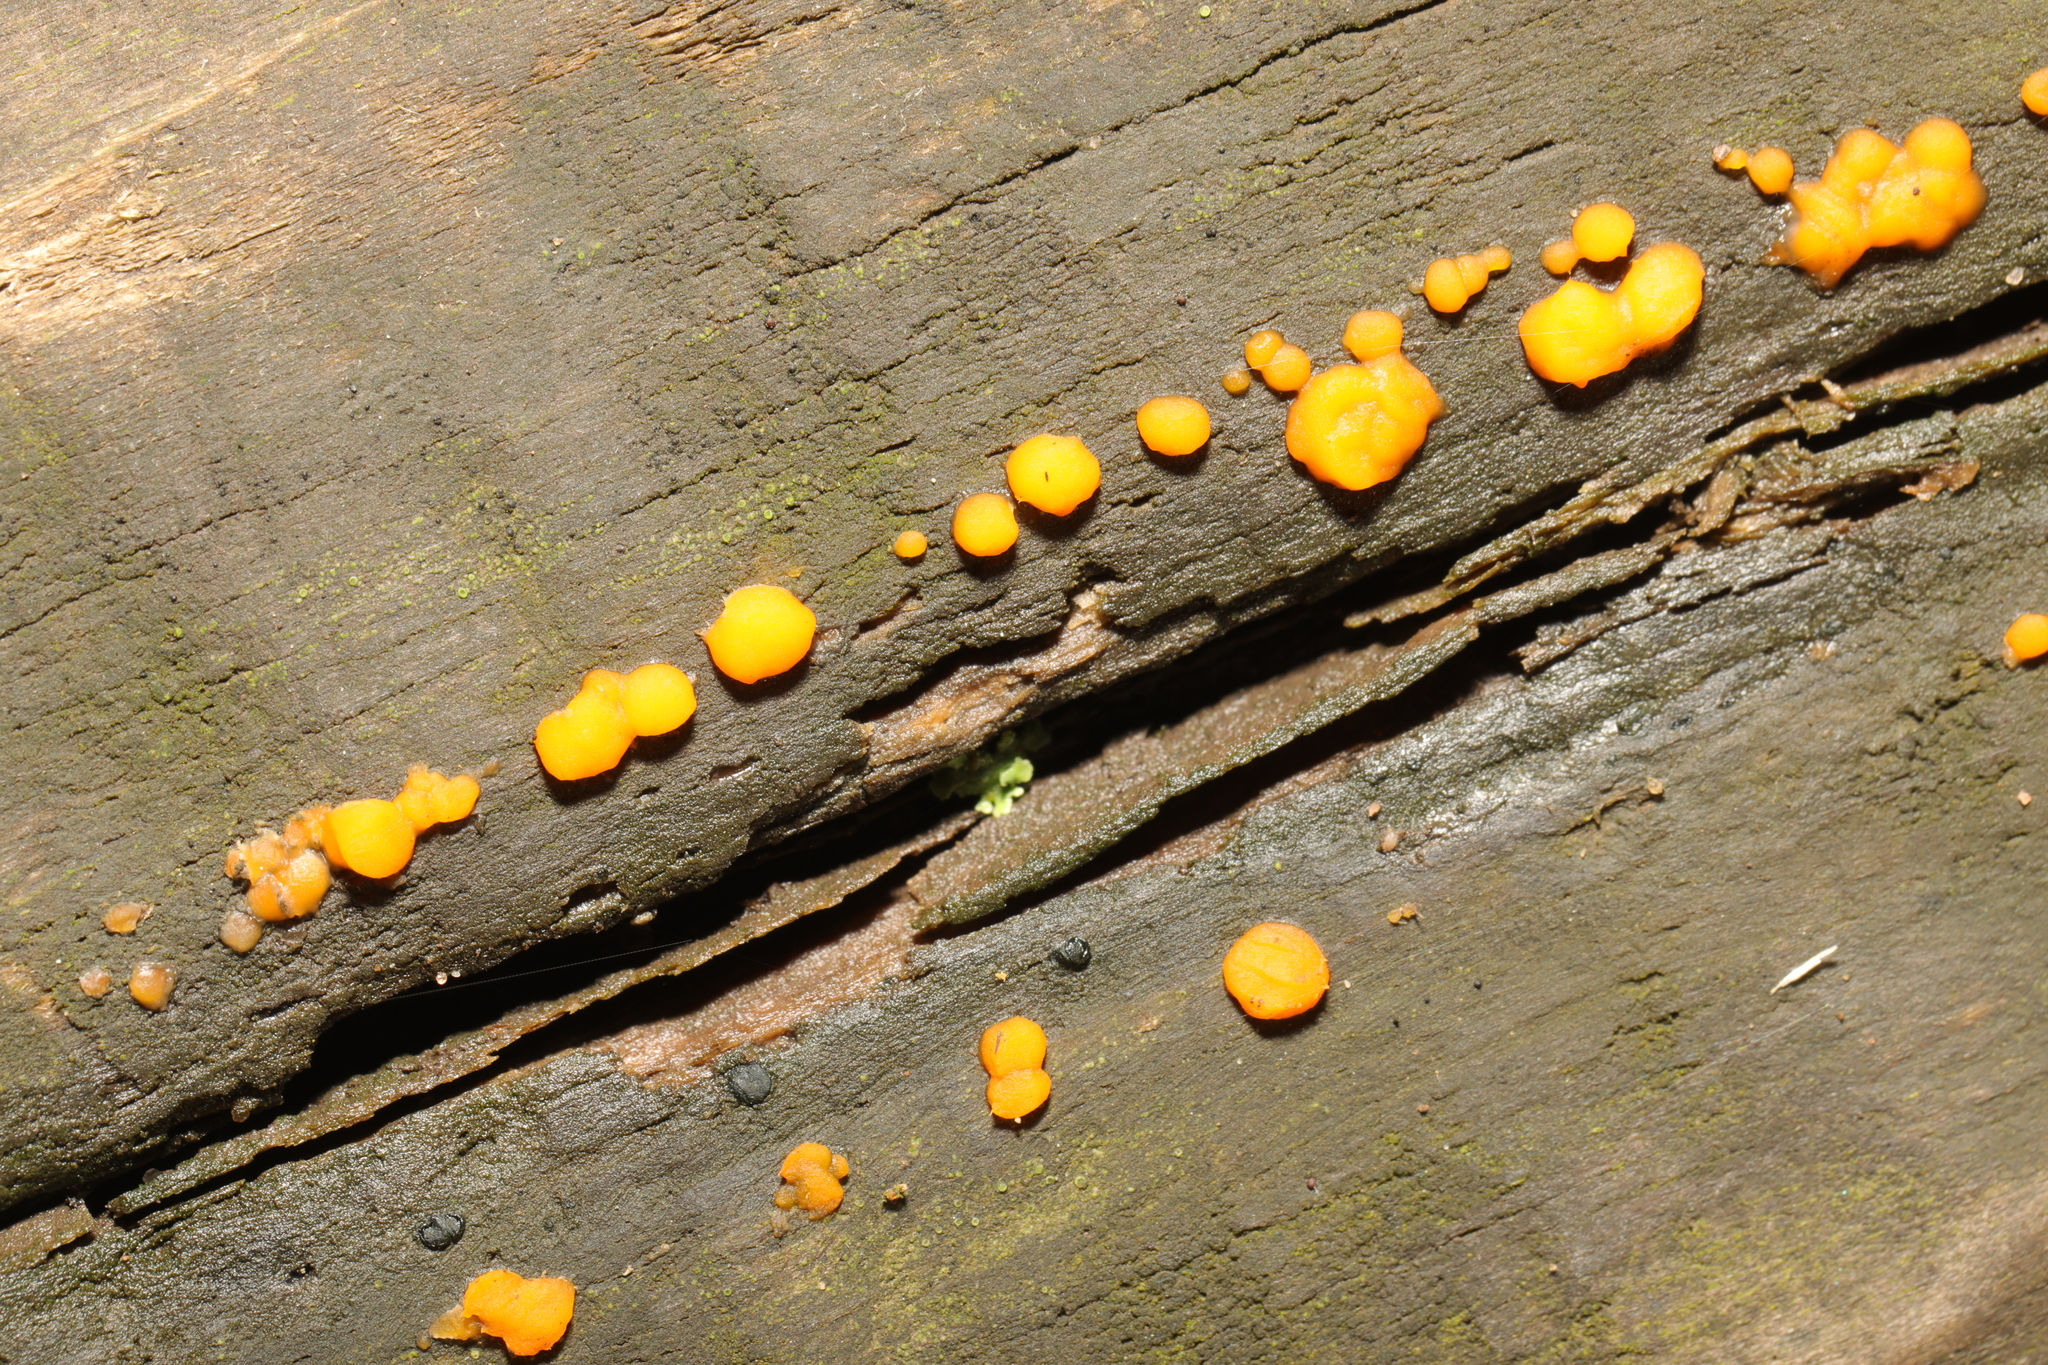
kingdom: Fungi
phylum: Basidiomycota
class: Dacrymycetes
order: Dacrymycetales
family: Dacrymycetaceae
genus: Dacrymyces
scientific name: Dacrymyces stillatus
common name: Common jelly spot
